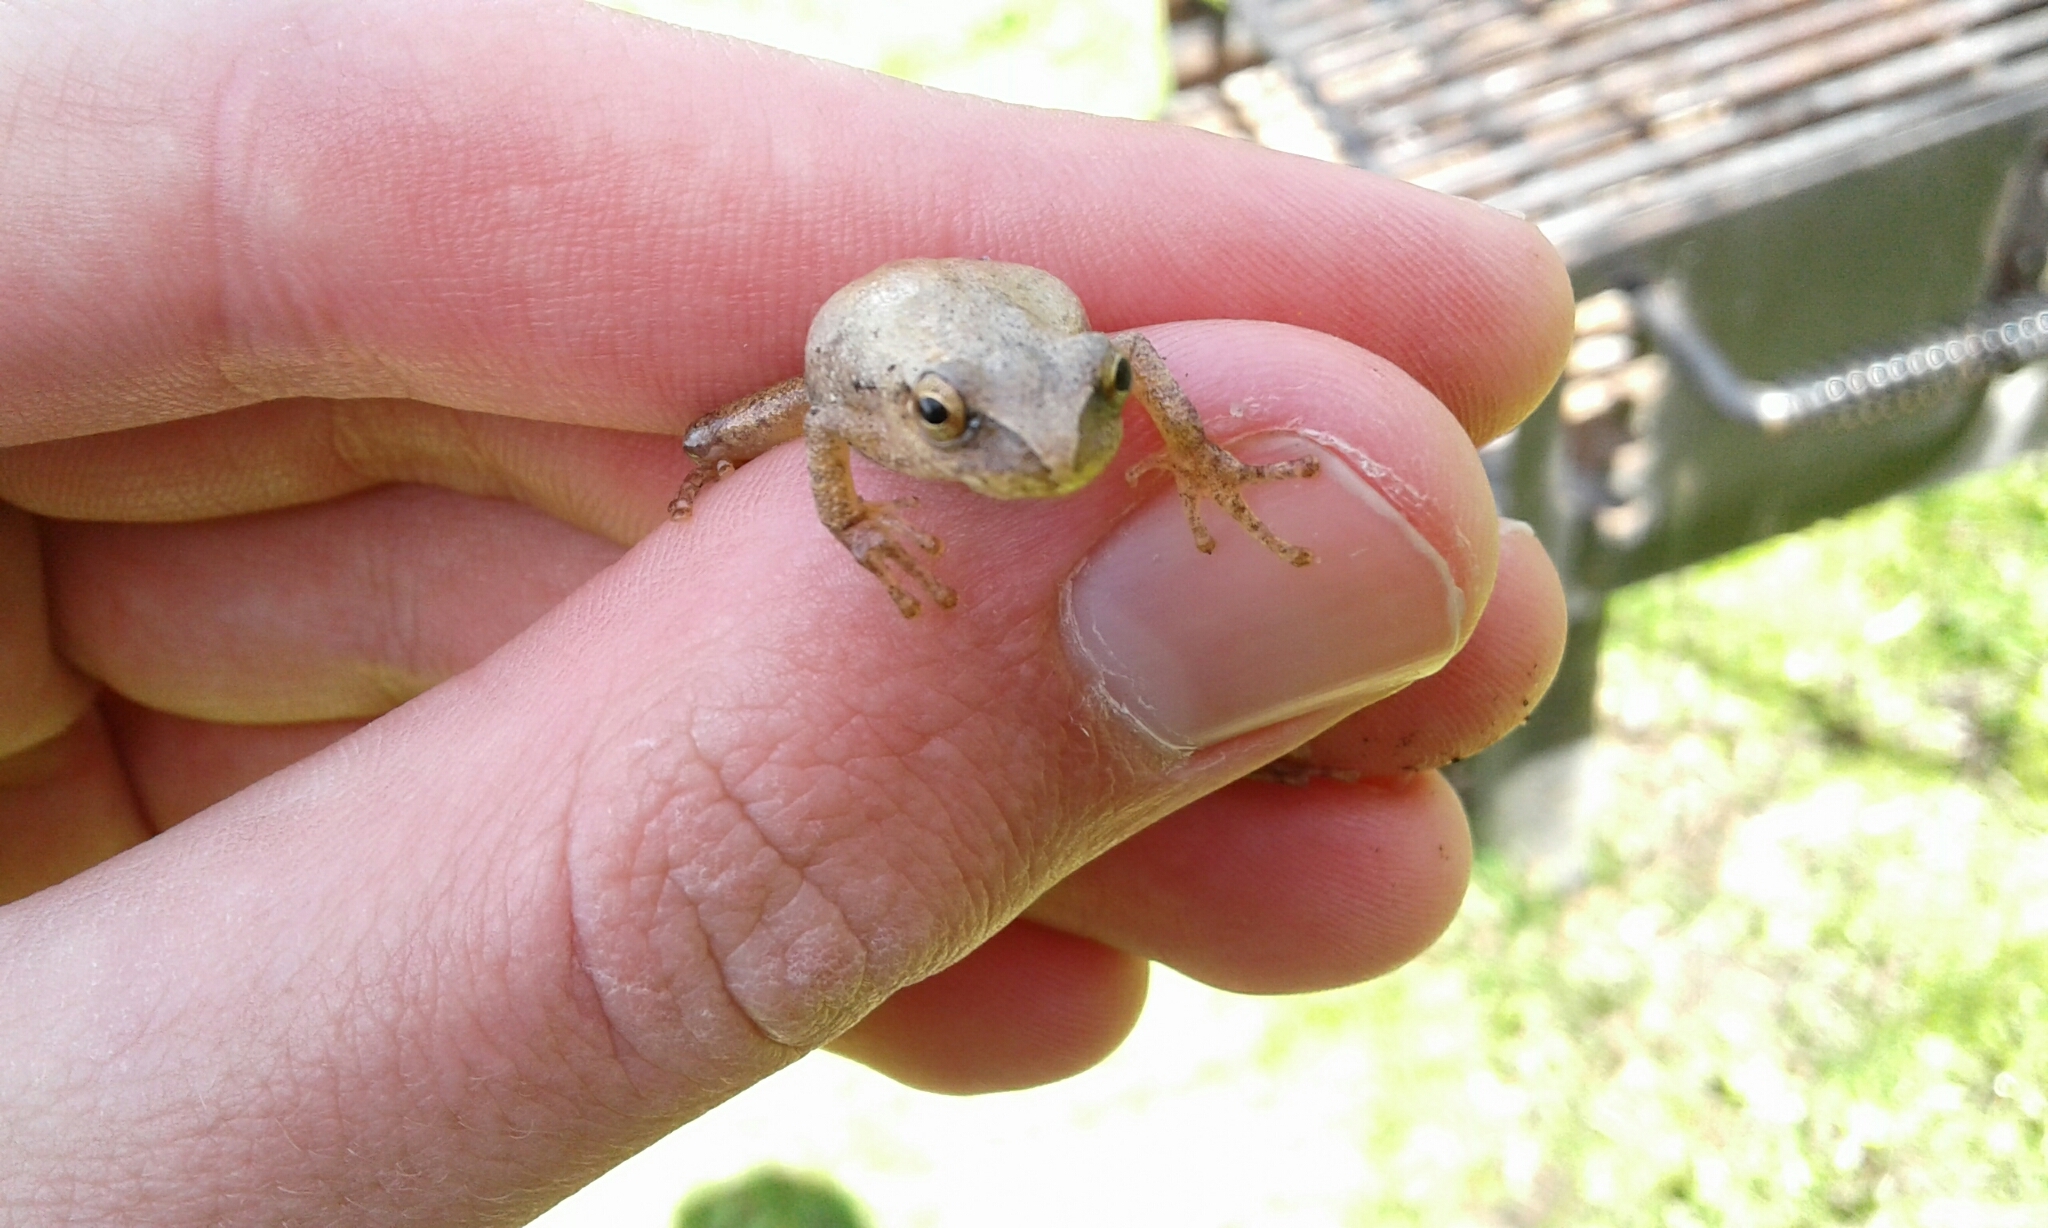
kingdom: Animalia
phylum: Chordata
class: Amphibia
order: Anura
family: Hylidae
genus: Pseudacris
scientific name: Pseudacris crucifer
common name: Spring peeper
